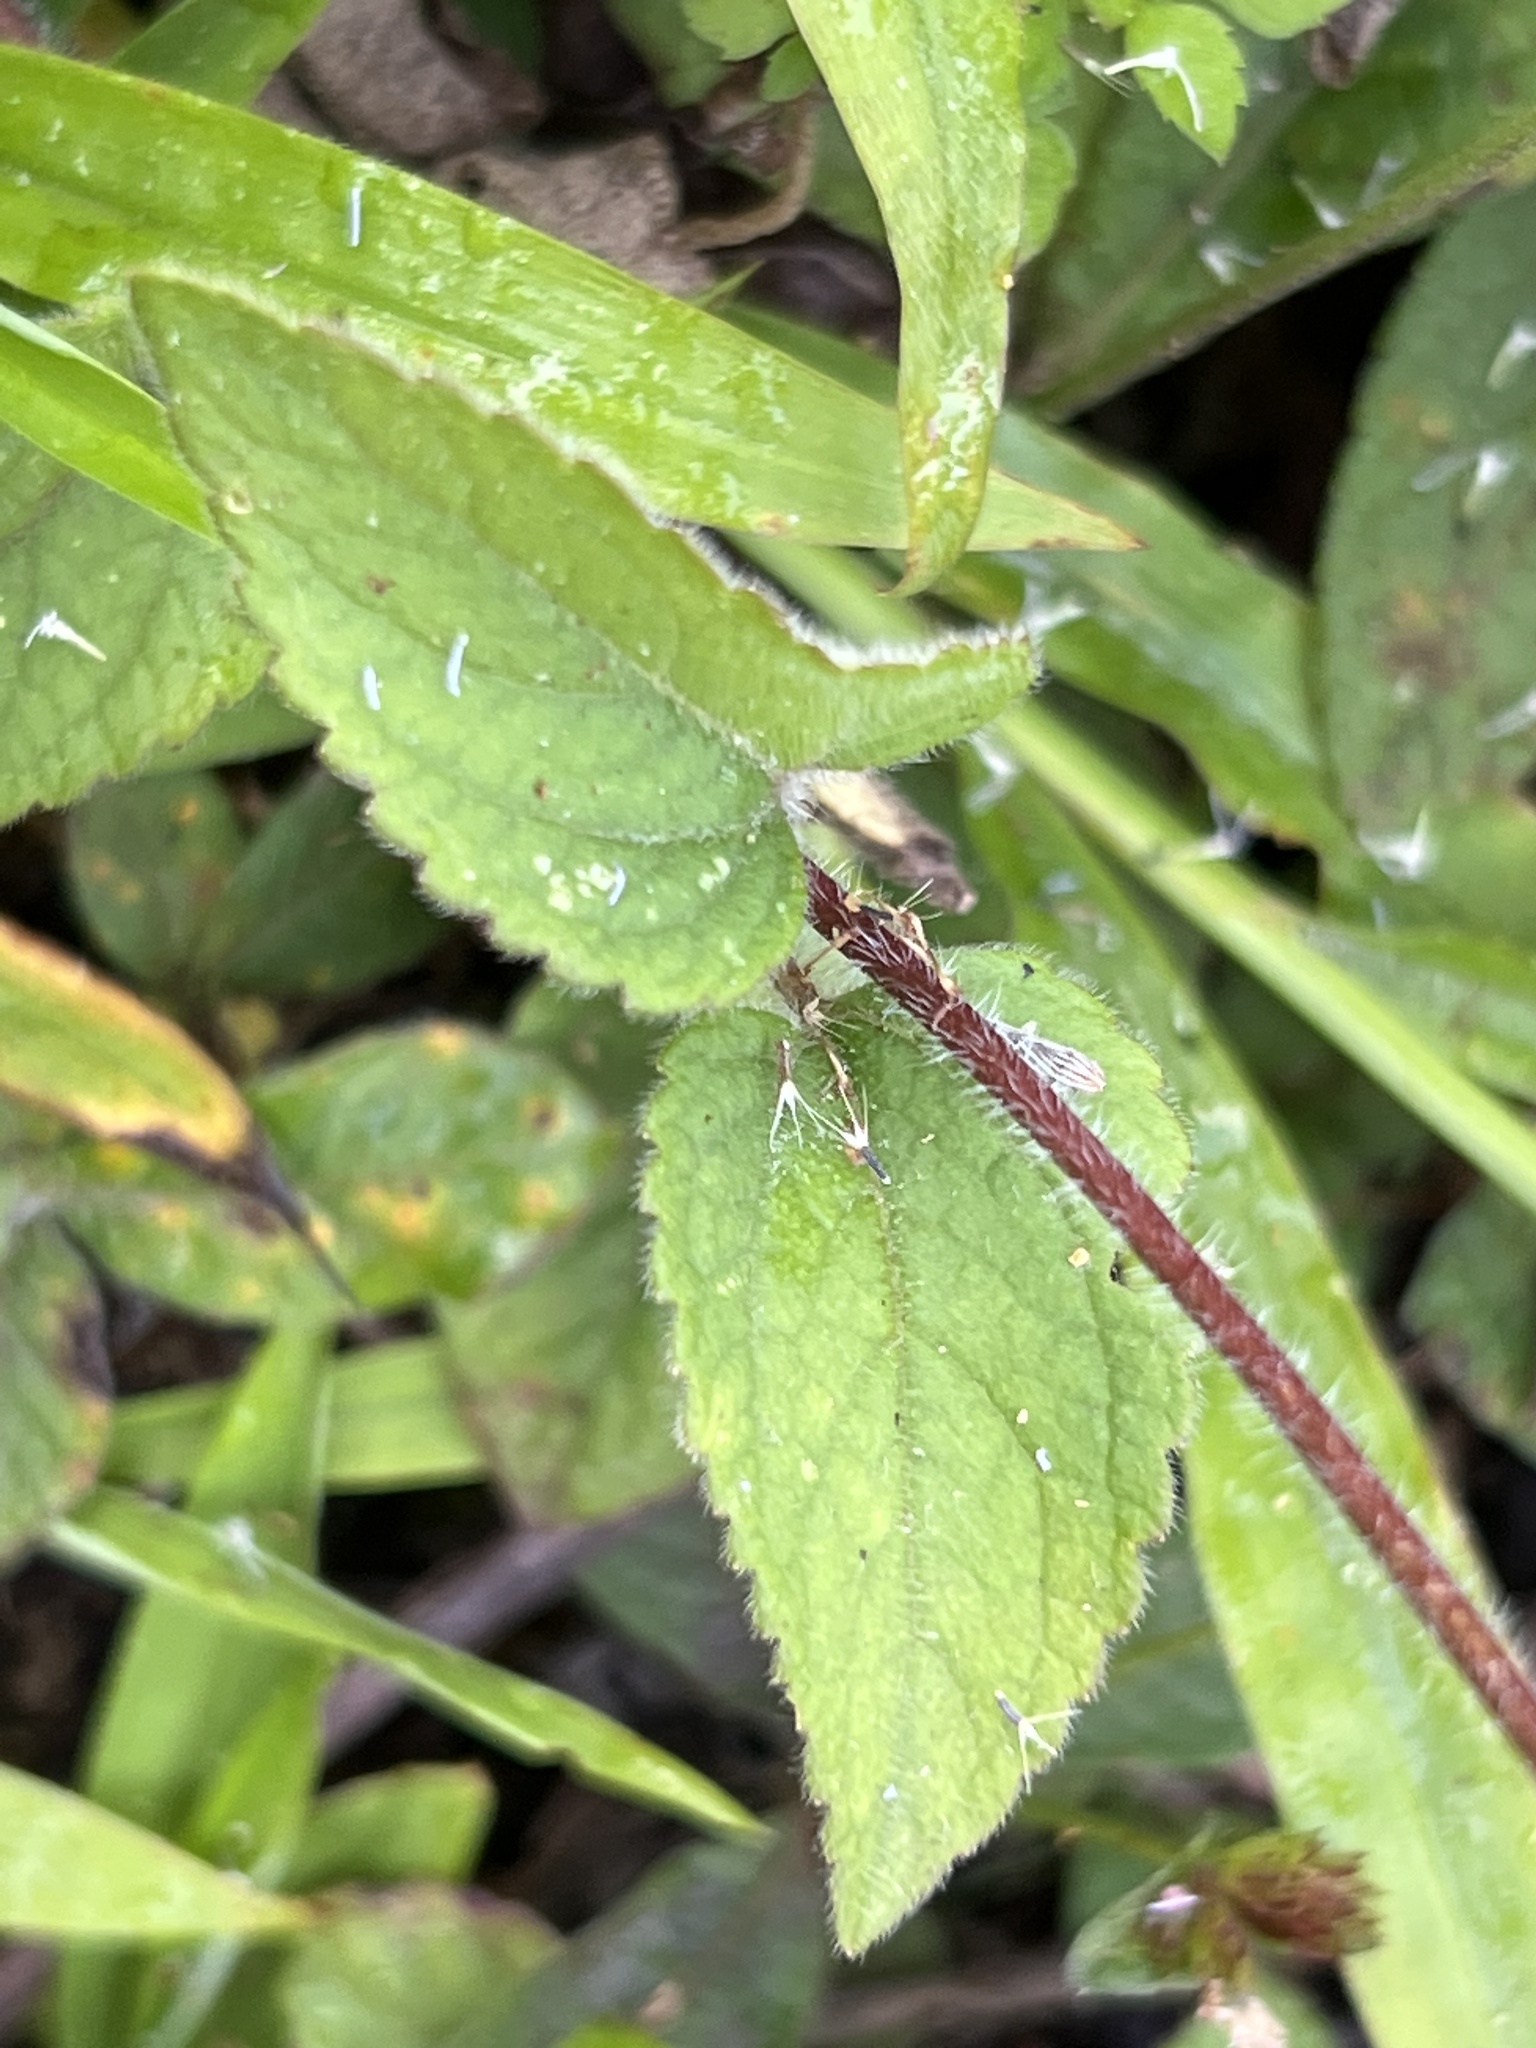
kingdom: Plantae
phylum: Tracheophyta
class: Magnoliopsida
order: Asterales
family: Asteraceae
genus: Ageratum
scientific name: Ageratum houstonianum
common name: Bluemink
